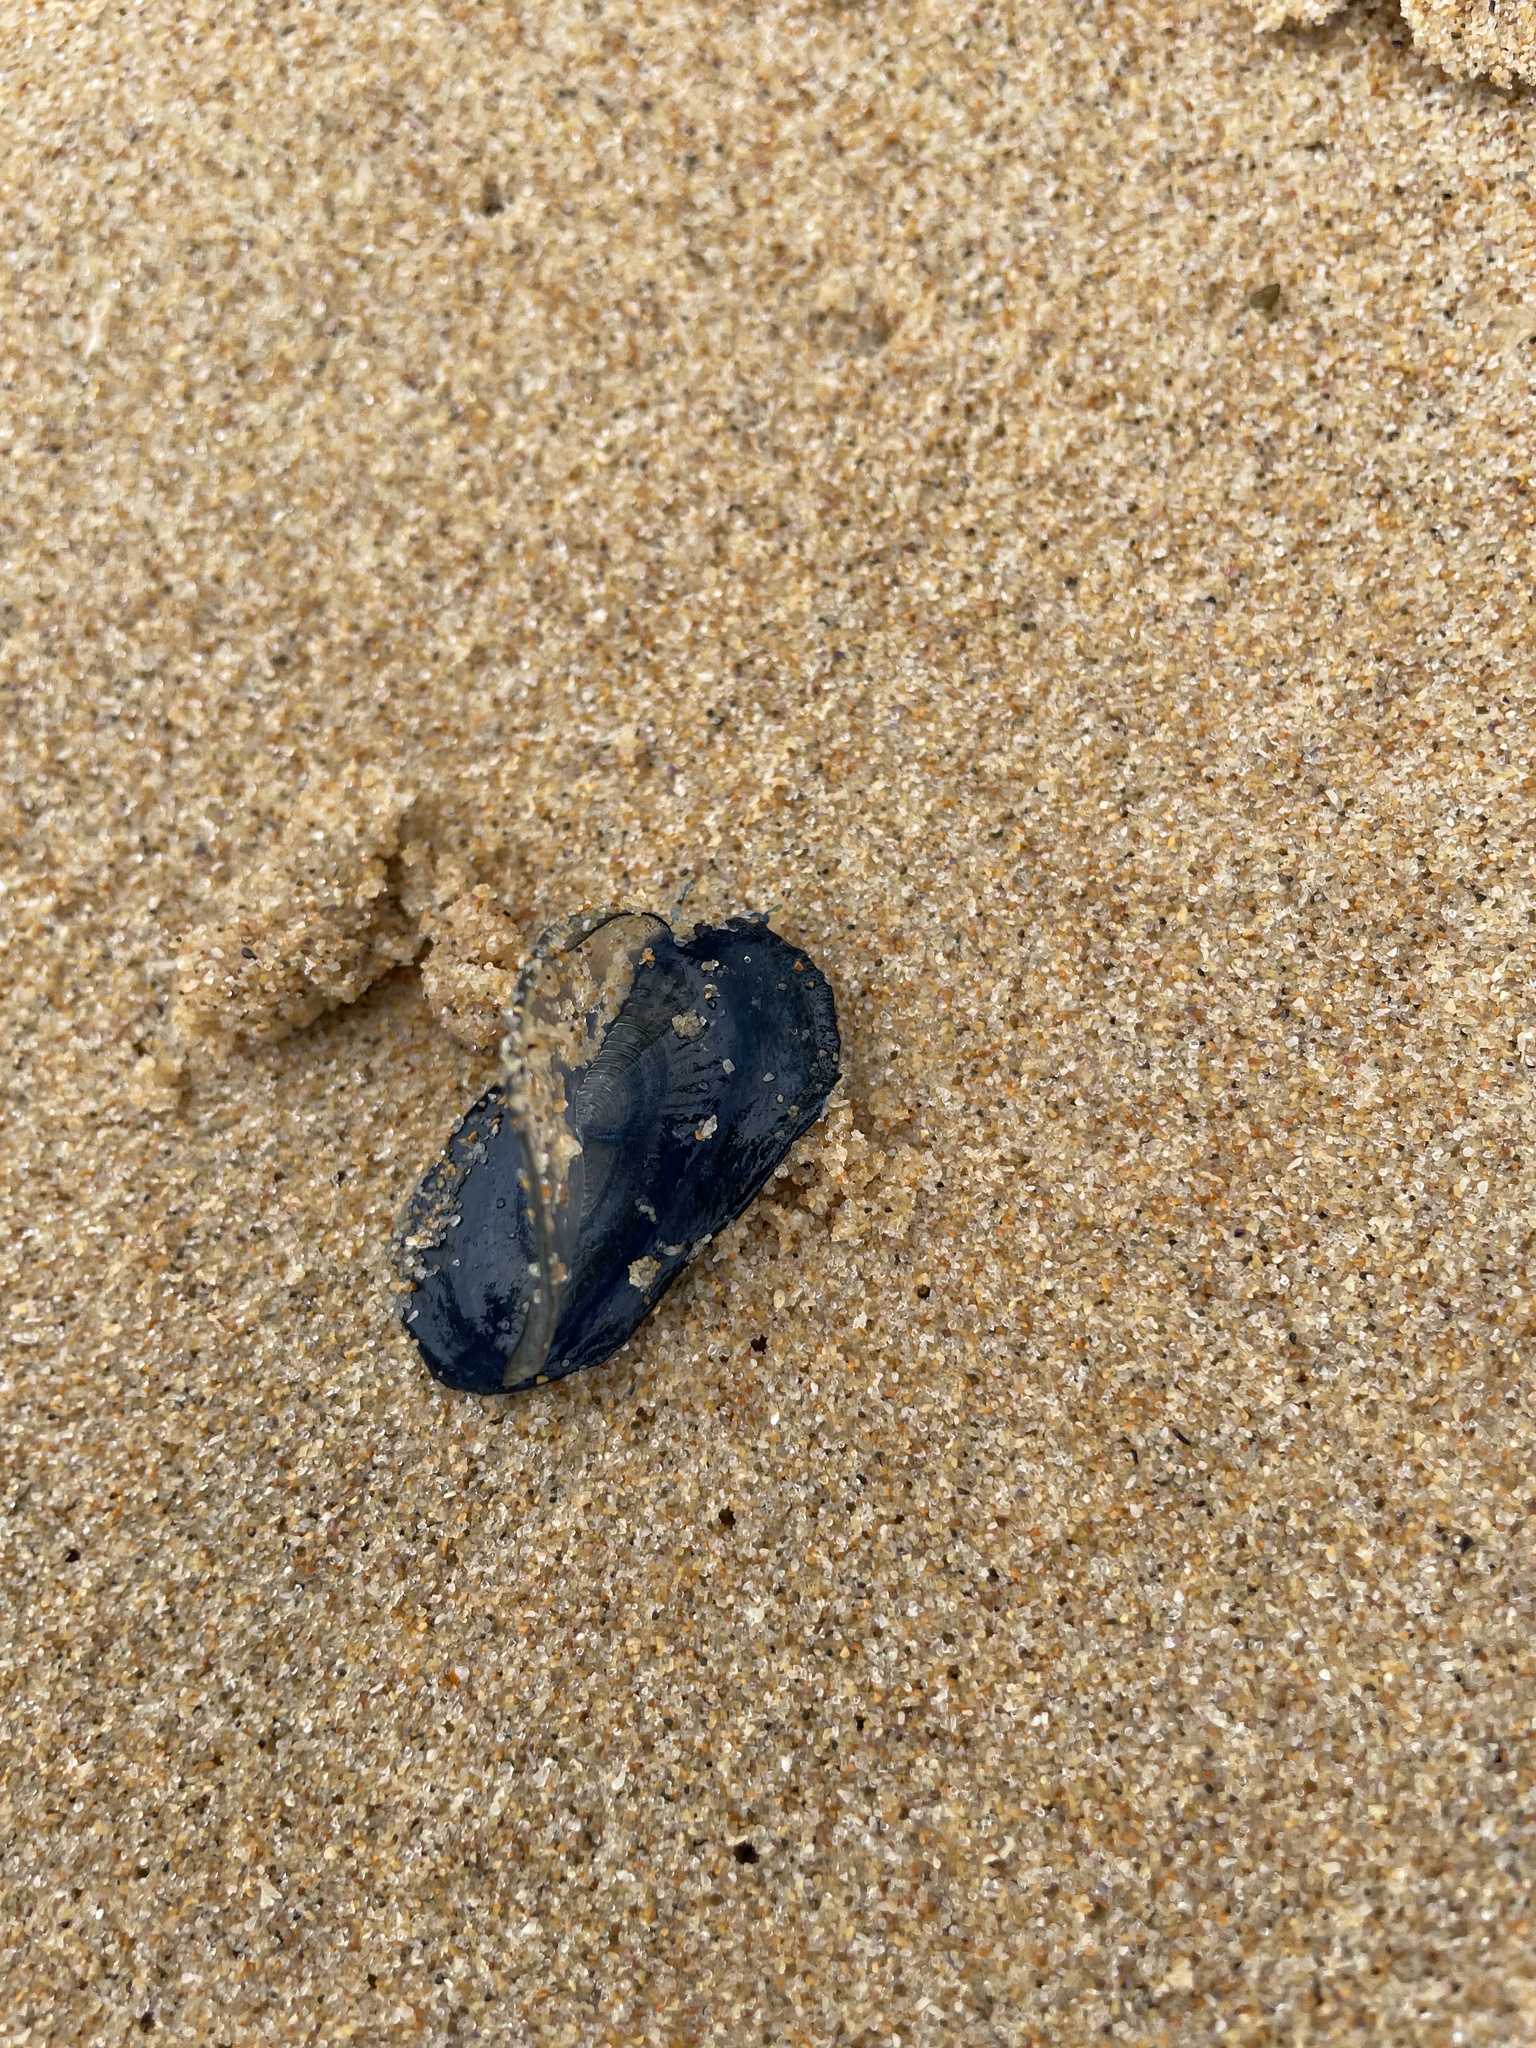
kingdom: Animalia
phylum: Cnidaria
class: Hydrozoa
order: Anthoathecata
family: Porpitidae
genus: Velella
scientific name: Velella velella
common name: By-the-wind-sailor
